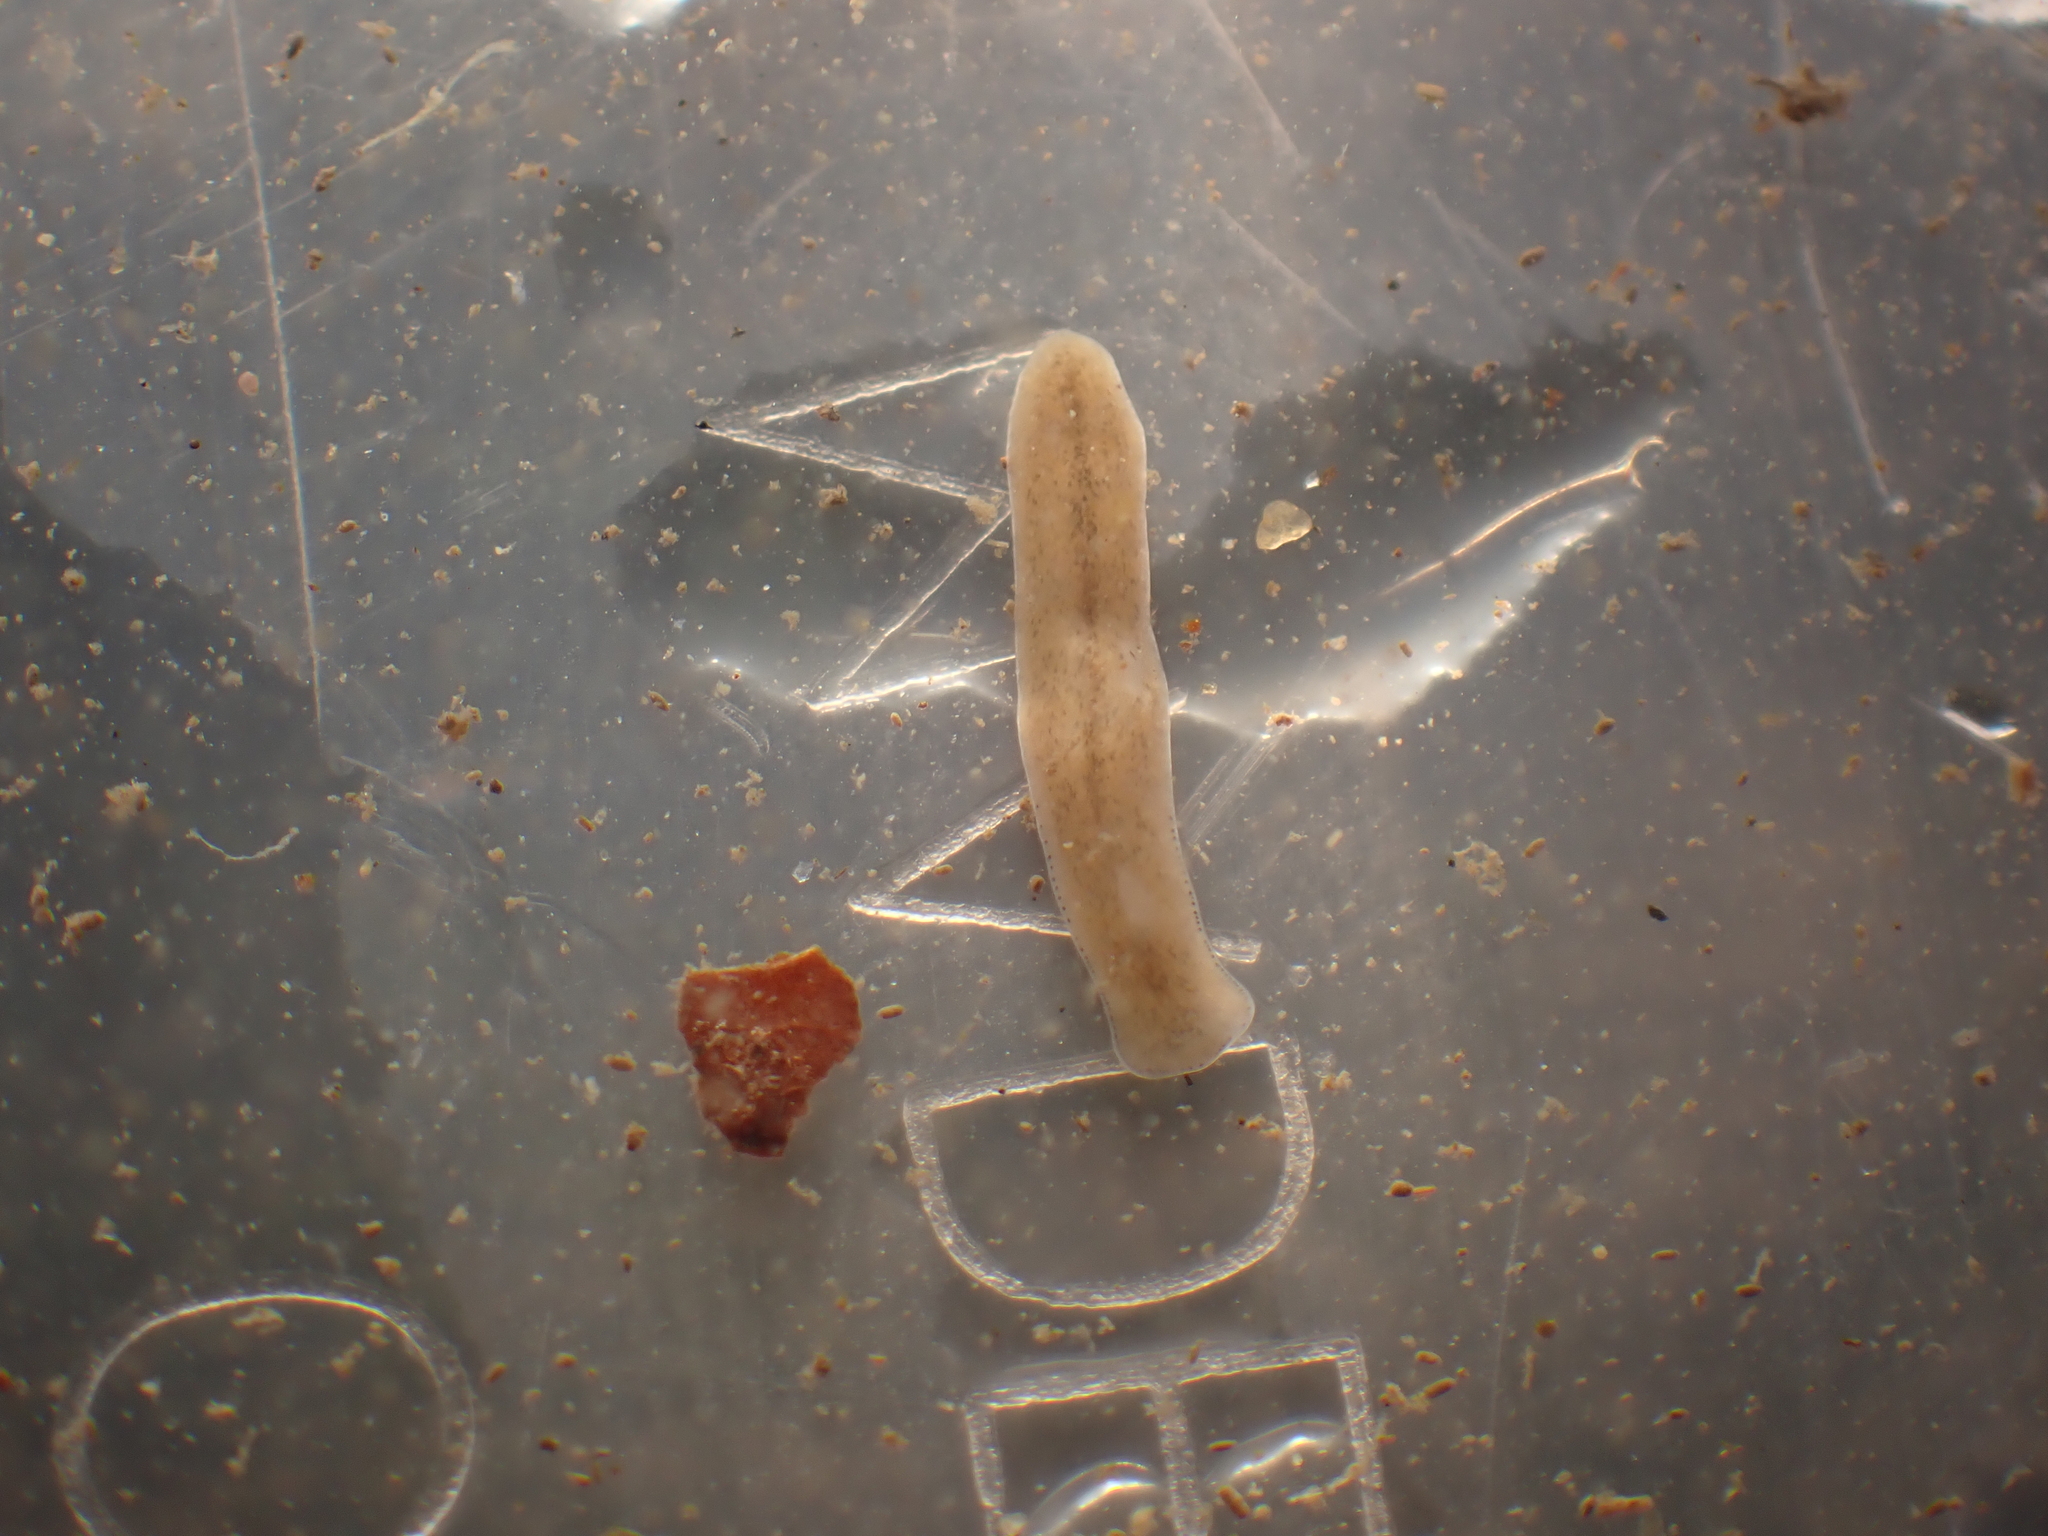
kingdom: Animalia
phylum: Platyhelminthes
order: Tricladida
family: Planariidae
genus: Polycelis
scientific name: Polycelis
